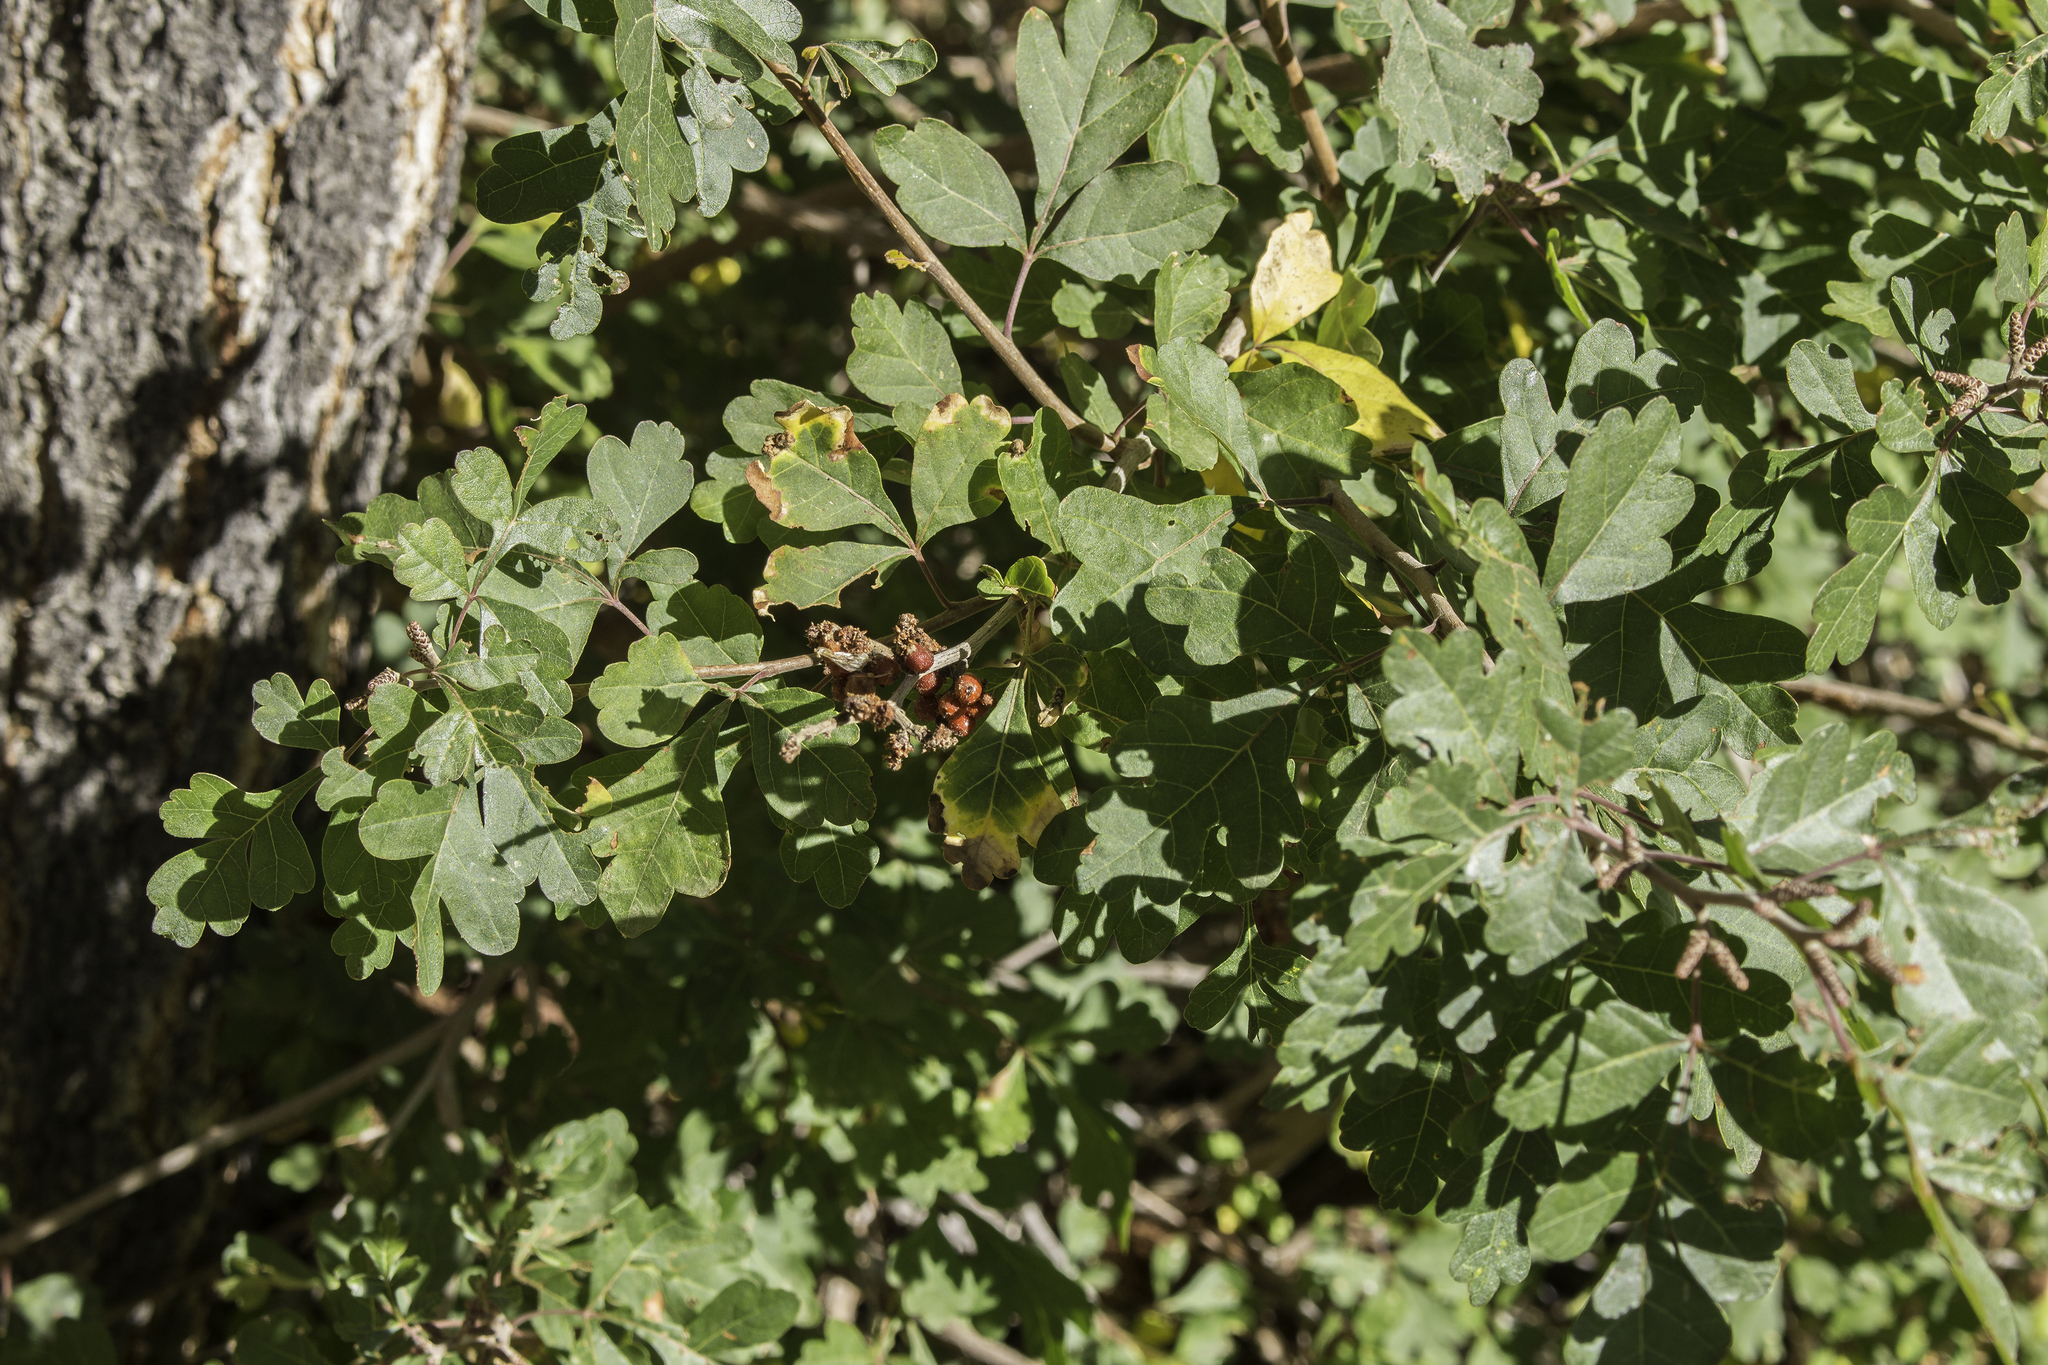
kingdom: Plantae
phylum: Tracheophyta
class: Magnoliopsida
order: Sapindales
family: Anacardiaceae
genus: Rhus
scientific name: Rhus aromatica
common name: Aromatic sumac
